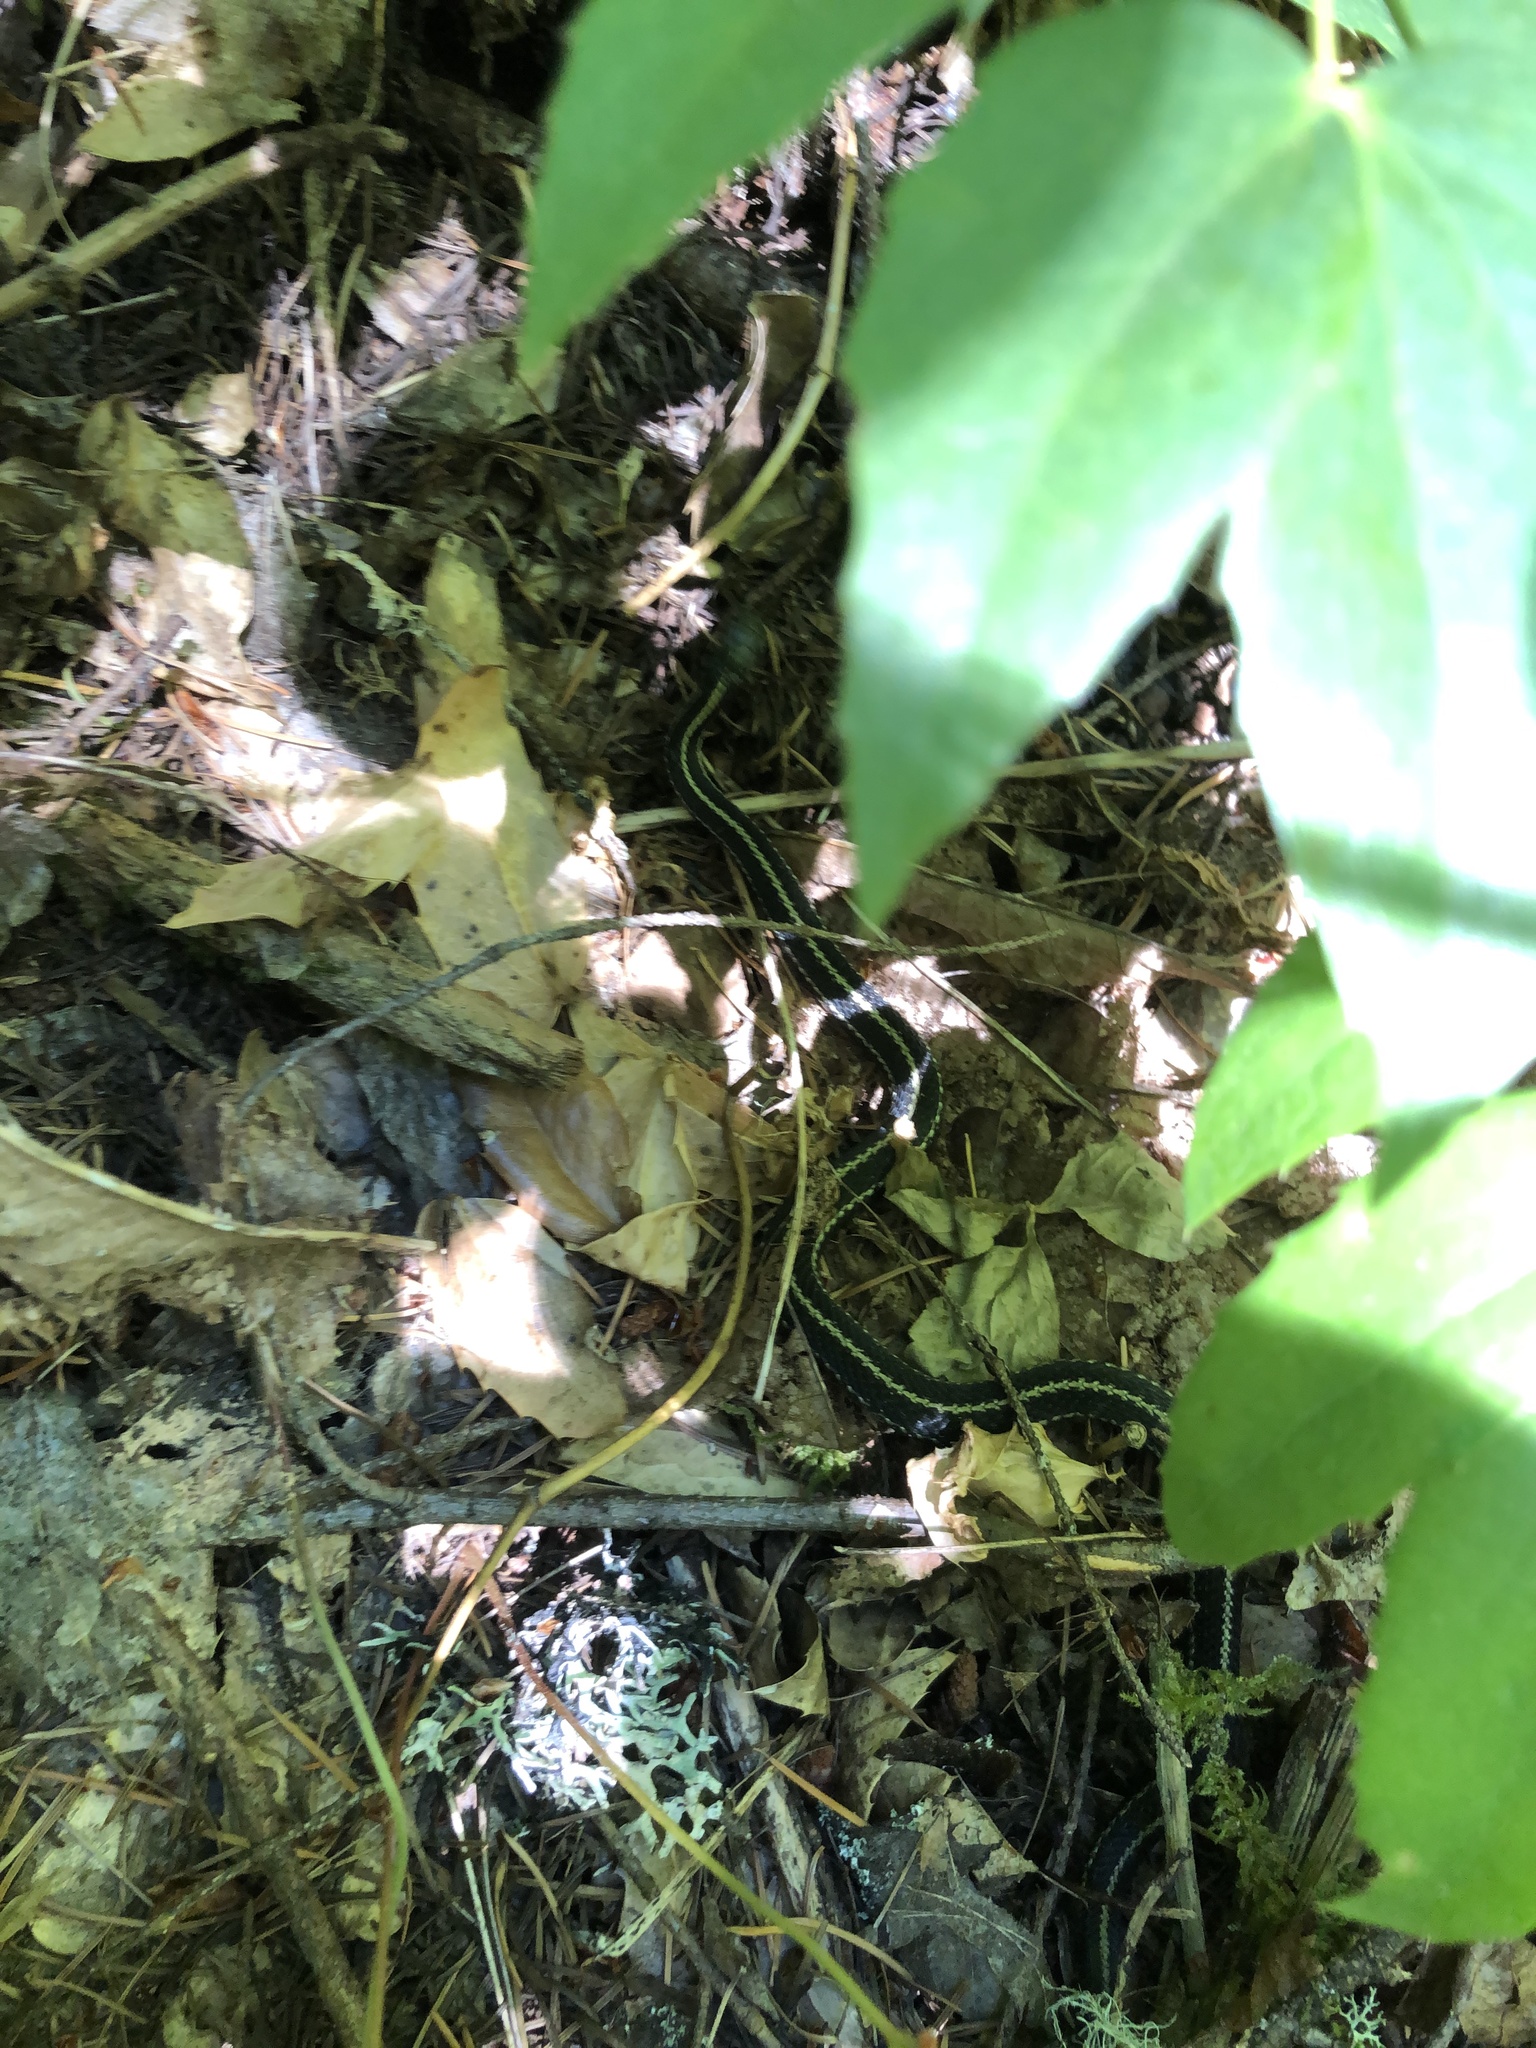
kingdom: Animalia
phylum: Chordata
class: Squamata
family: Colubridae
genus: Thamnophis
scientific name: Thamnophis ordinoides
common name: Northwestern garter snake
